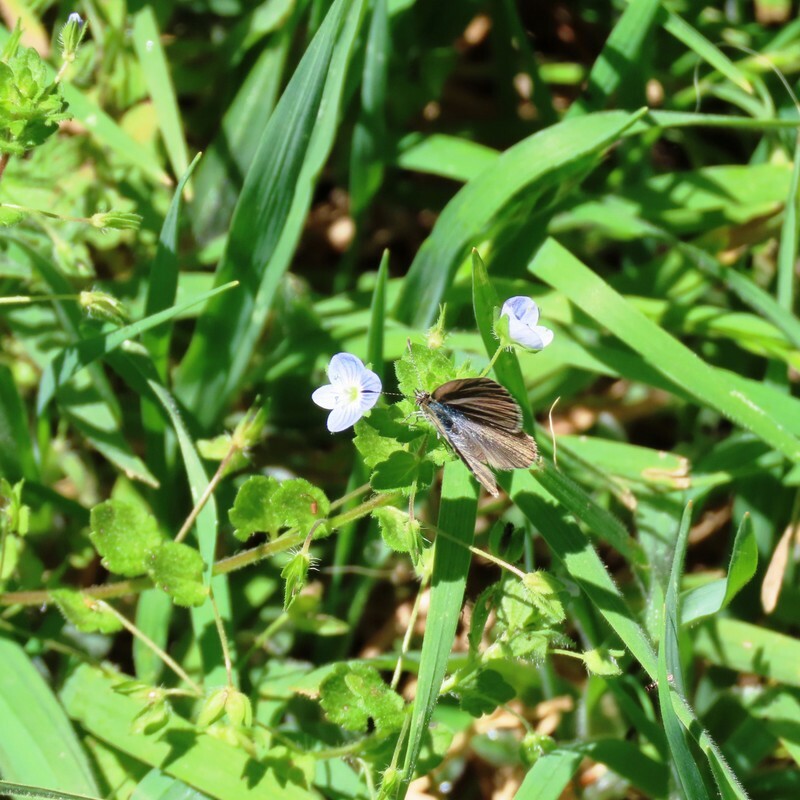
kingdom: Animalia
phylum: Arthropoda
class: Insecta
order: Lepidoptera
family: Lycaenidae
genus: Zizina
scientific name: Zizina otis
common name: Lesser grass blue
